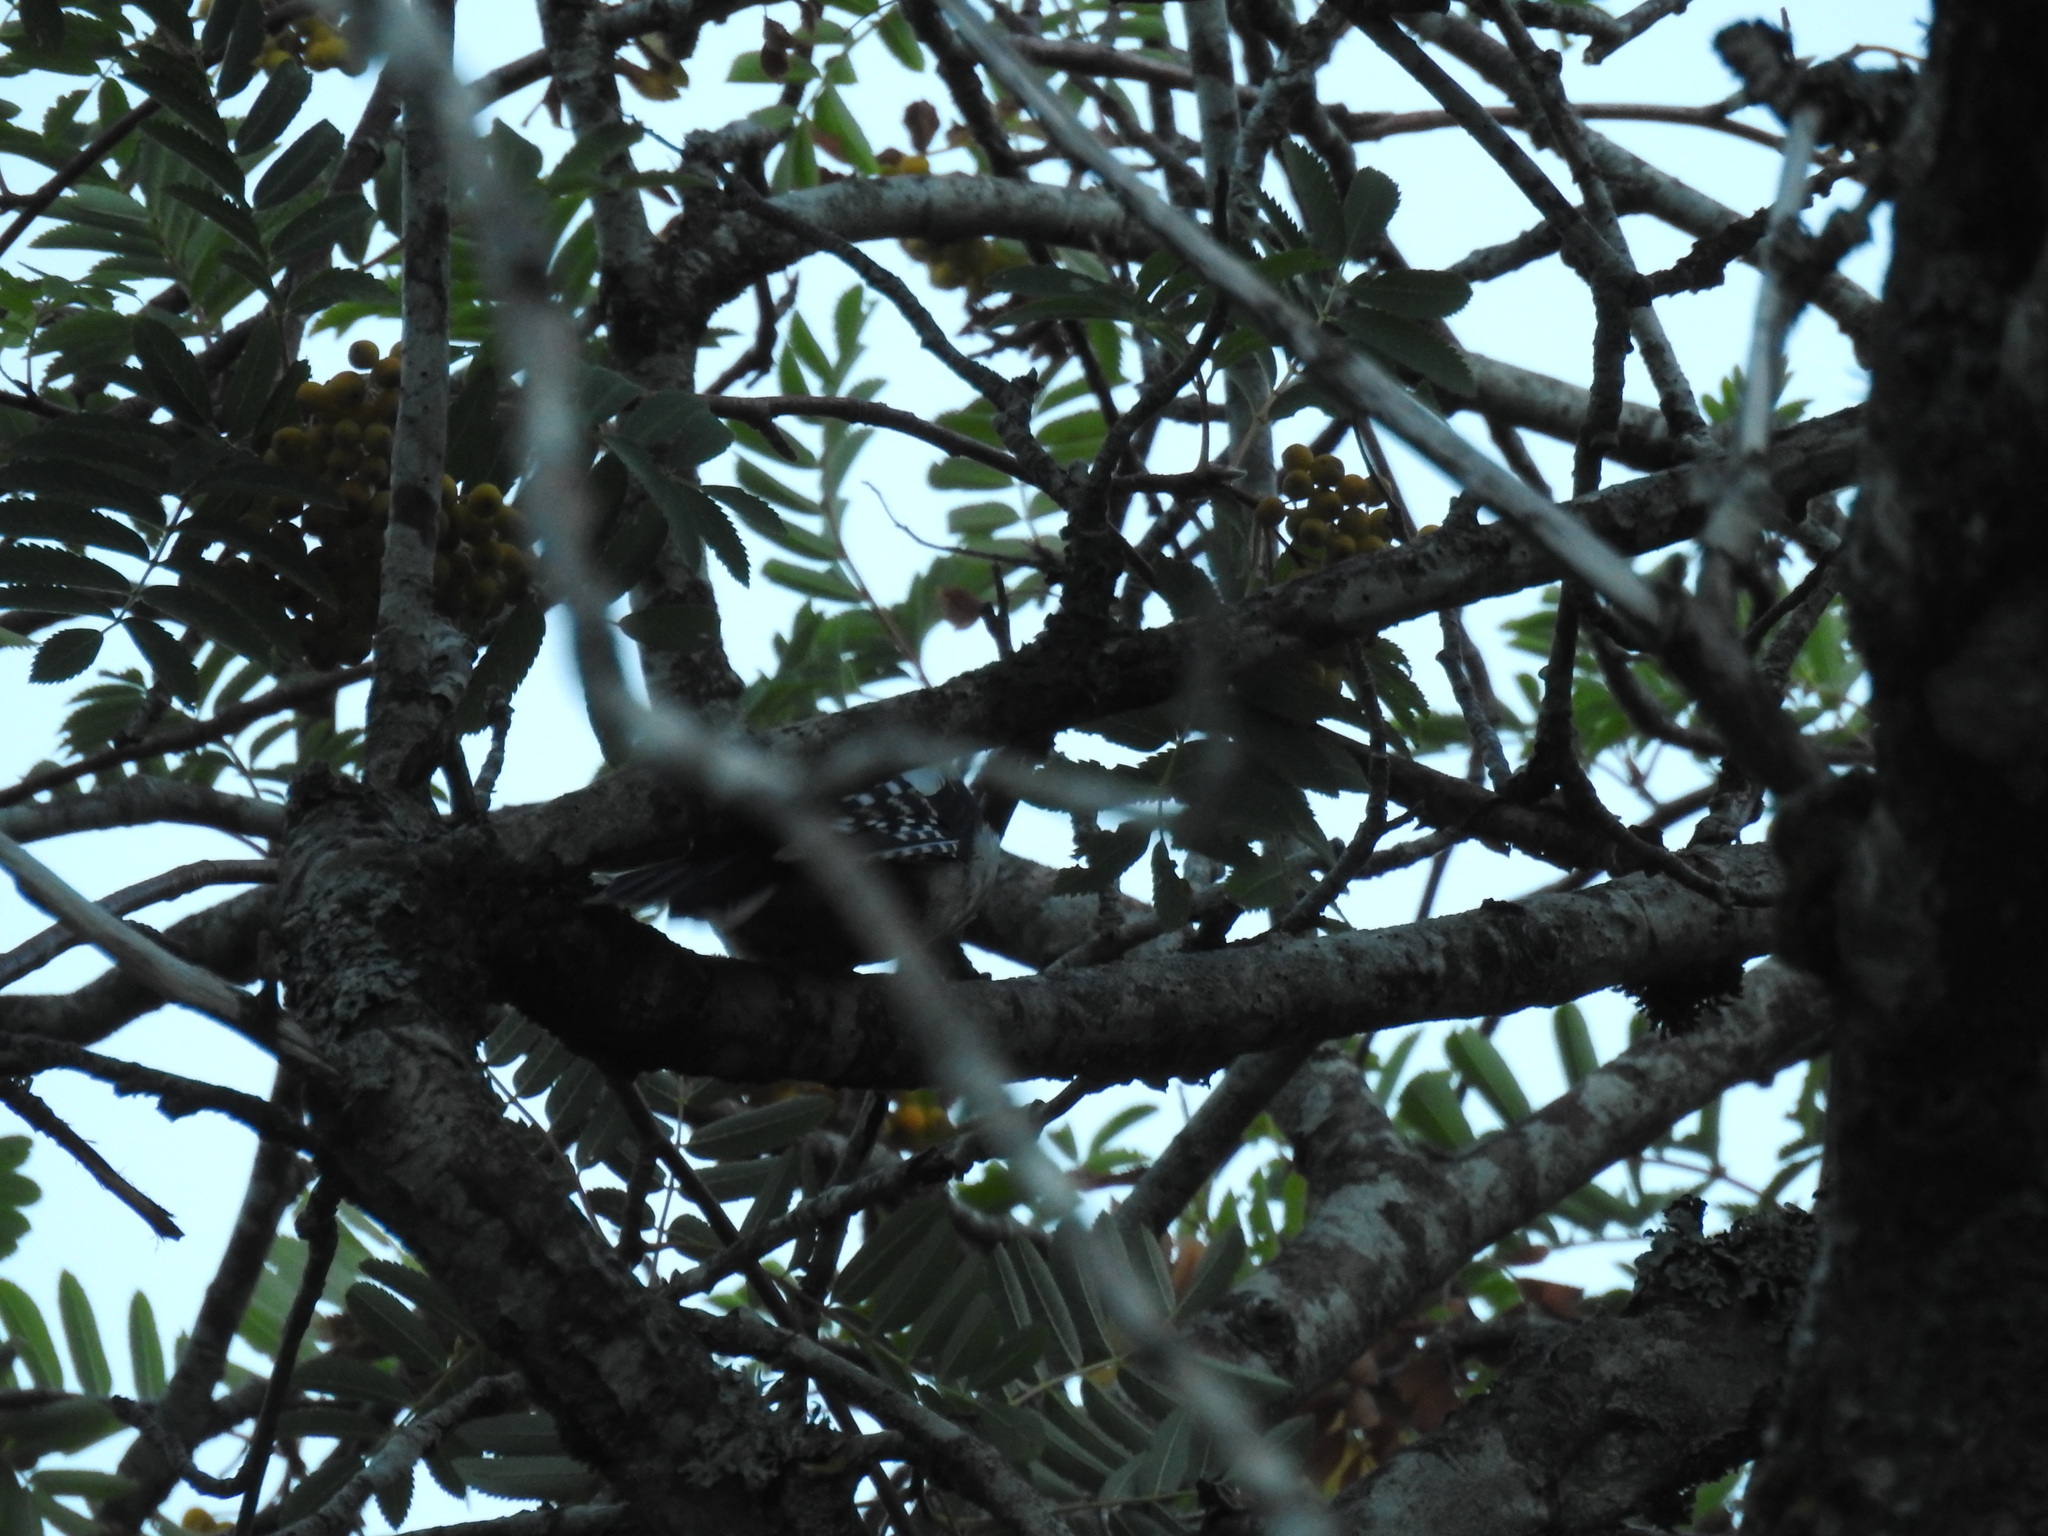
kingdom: Animalia
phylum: Chordata
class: Aves
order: Piciformes
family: Picidae
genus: Dendrocopos
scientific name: Dendrocopos major
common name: Great spotted woodpecker
